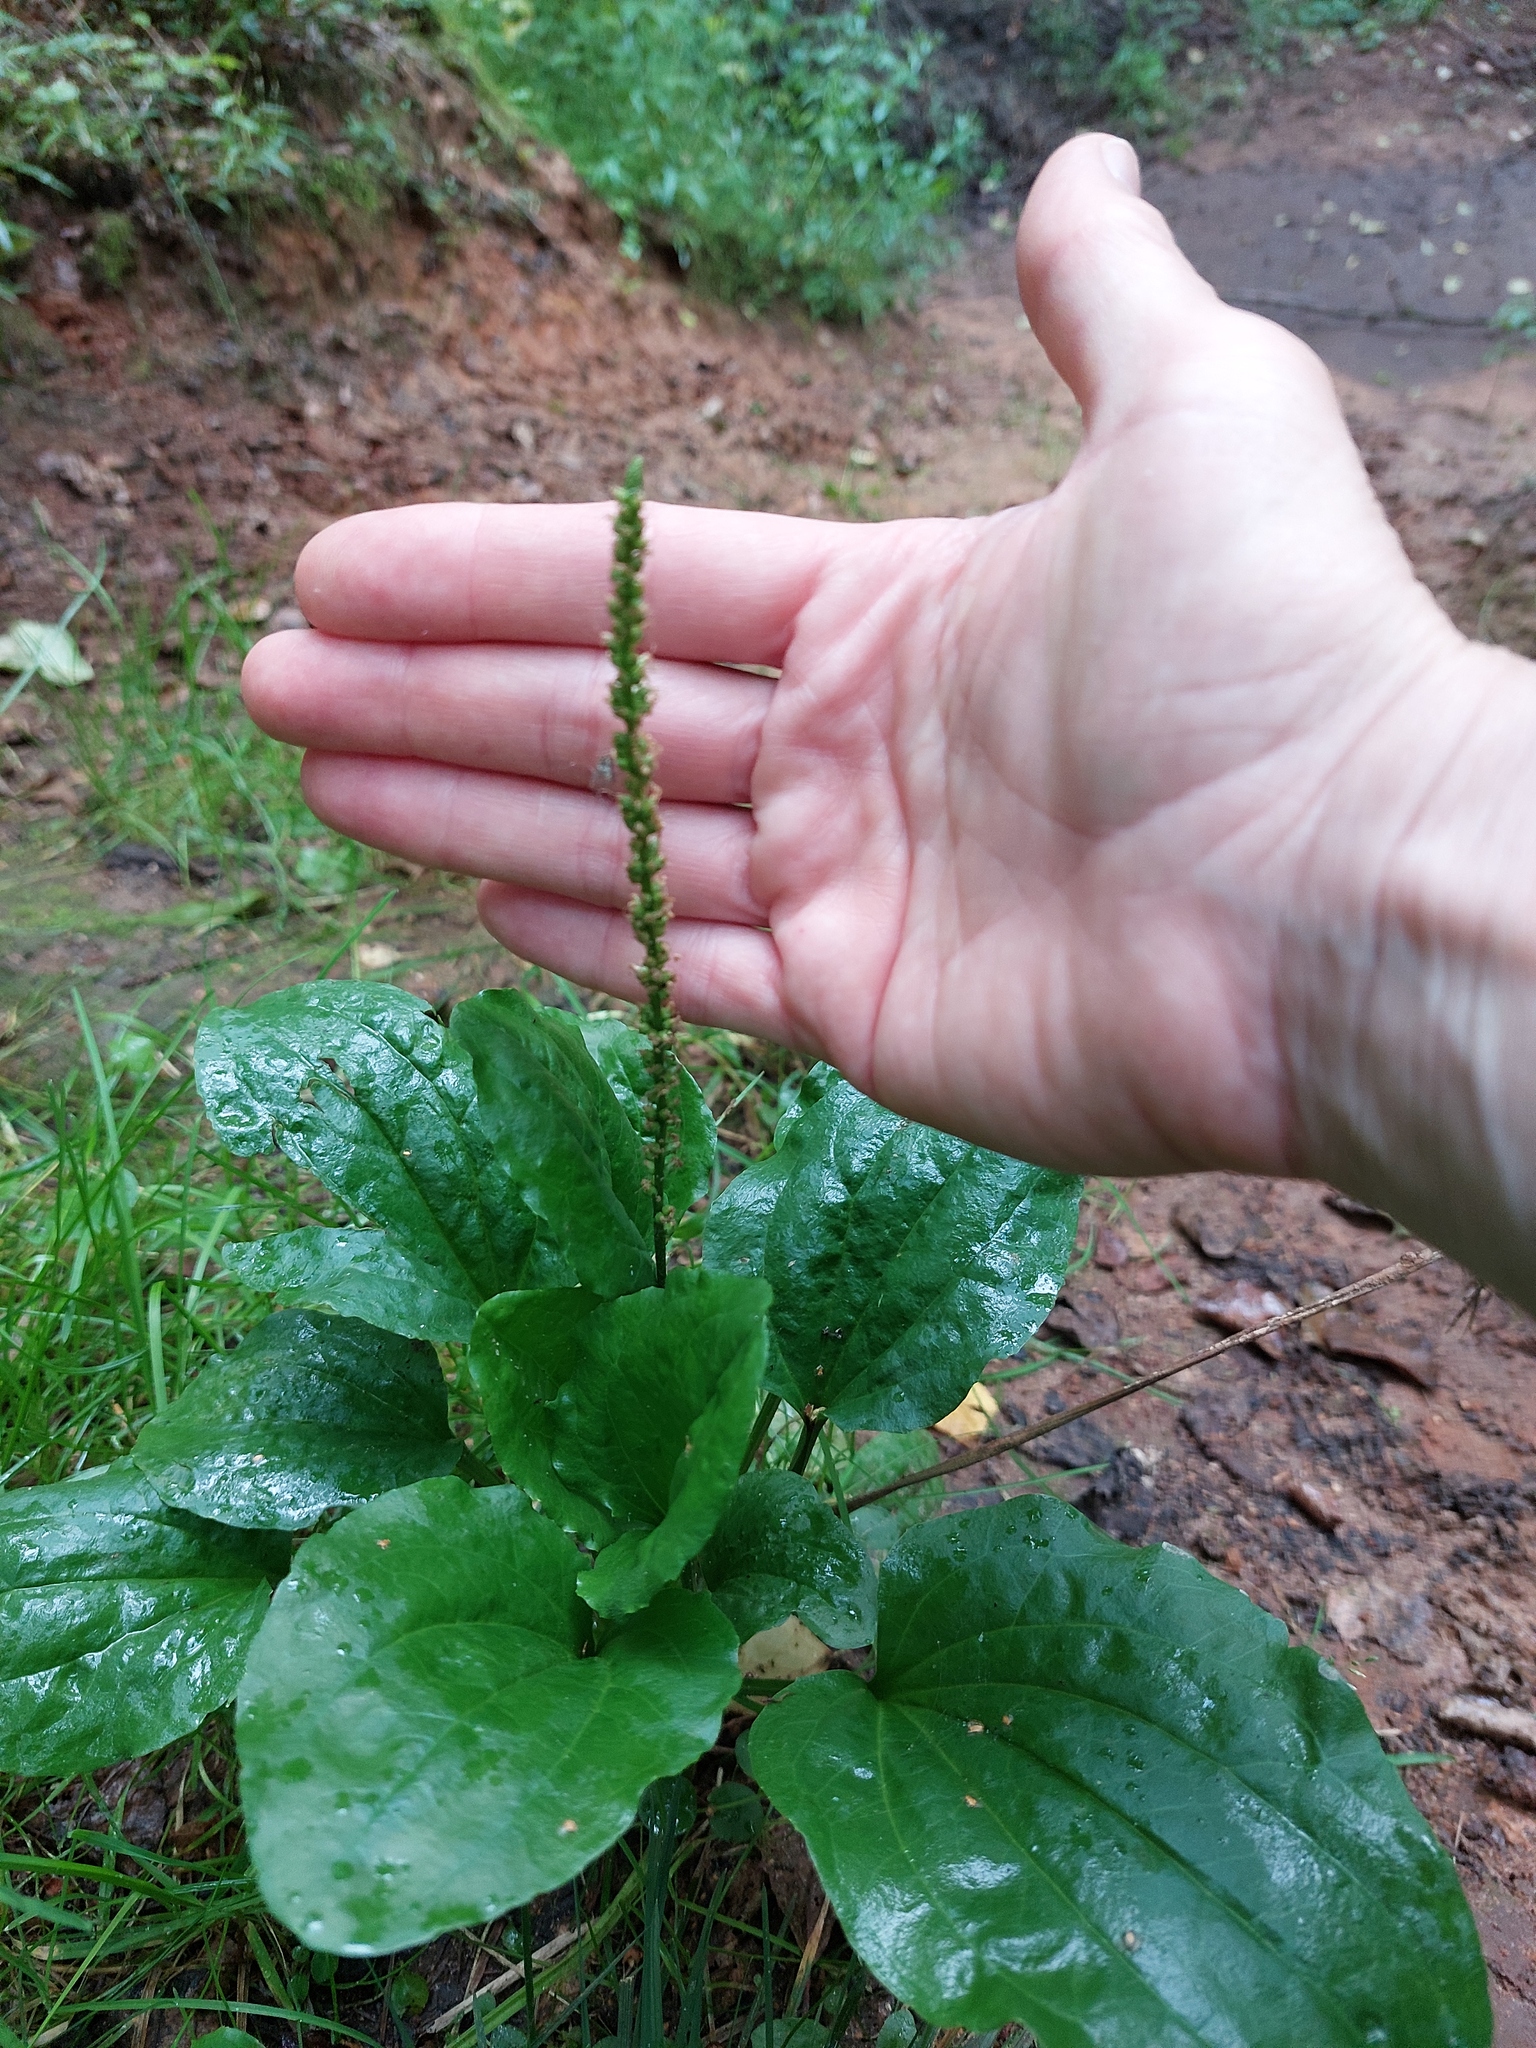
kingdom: Plantae
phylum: Tracheophyta
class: Magnoliopsida
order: Lamiales
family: Plantaginaceae
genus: Plantago
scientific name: Plantago major
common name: Common plantain
